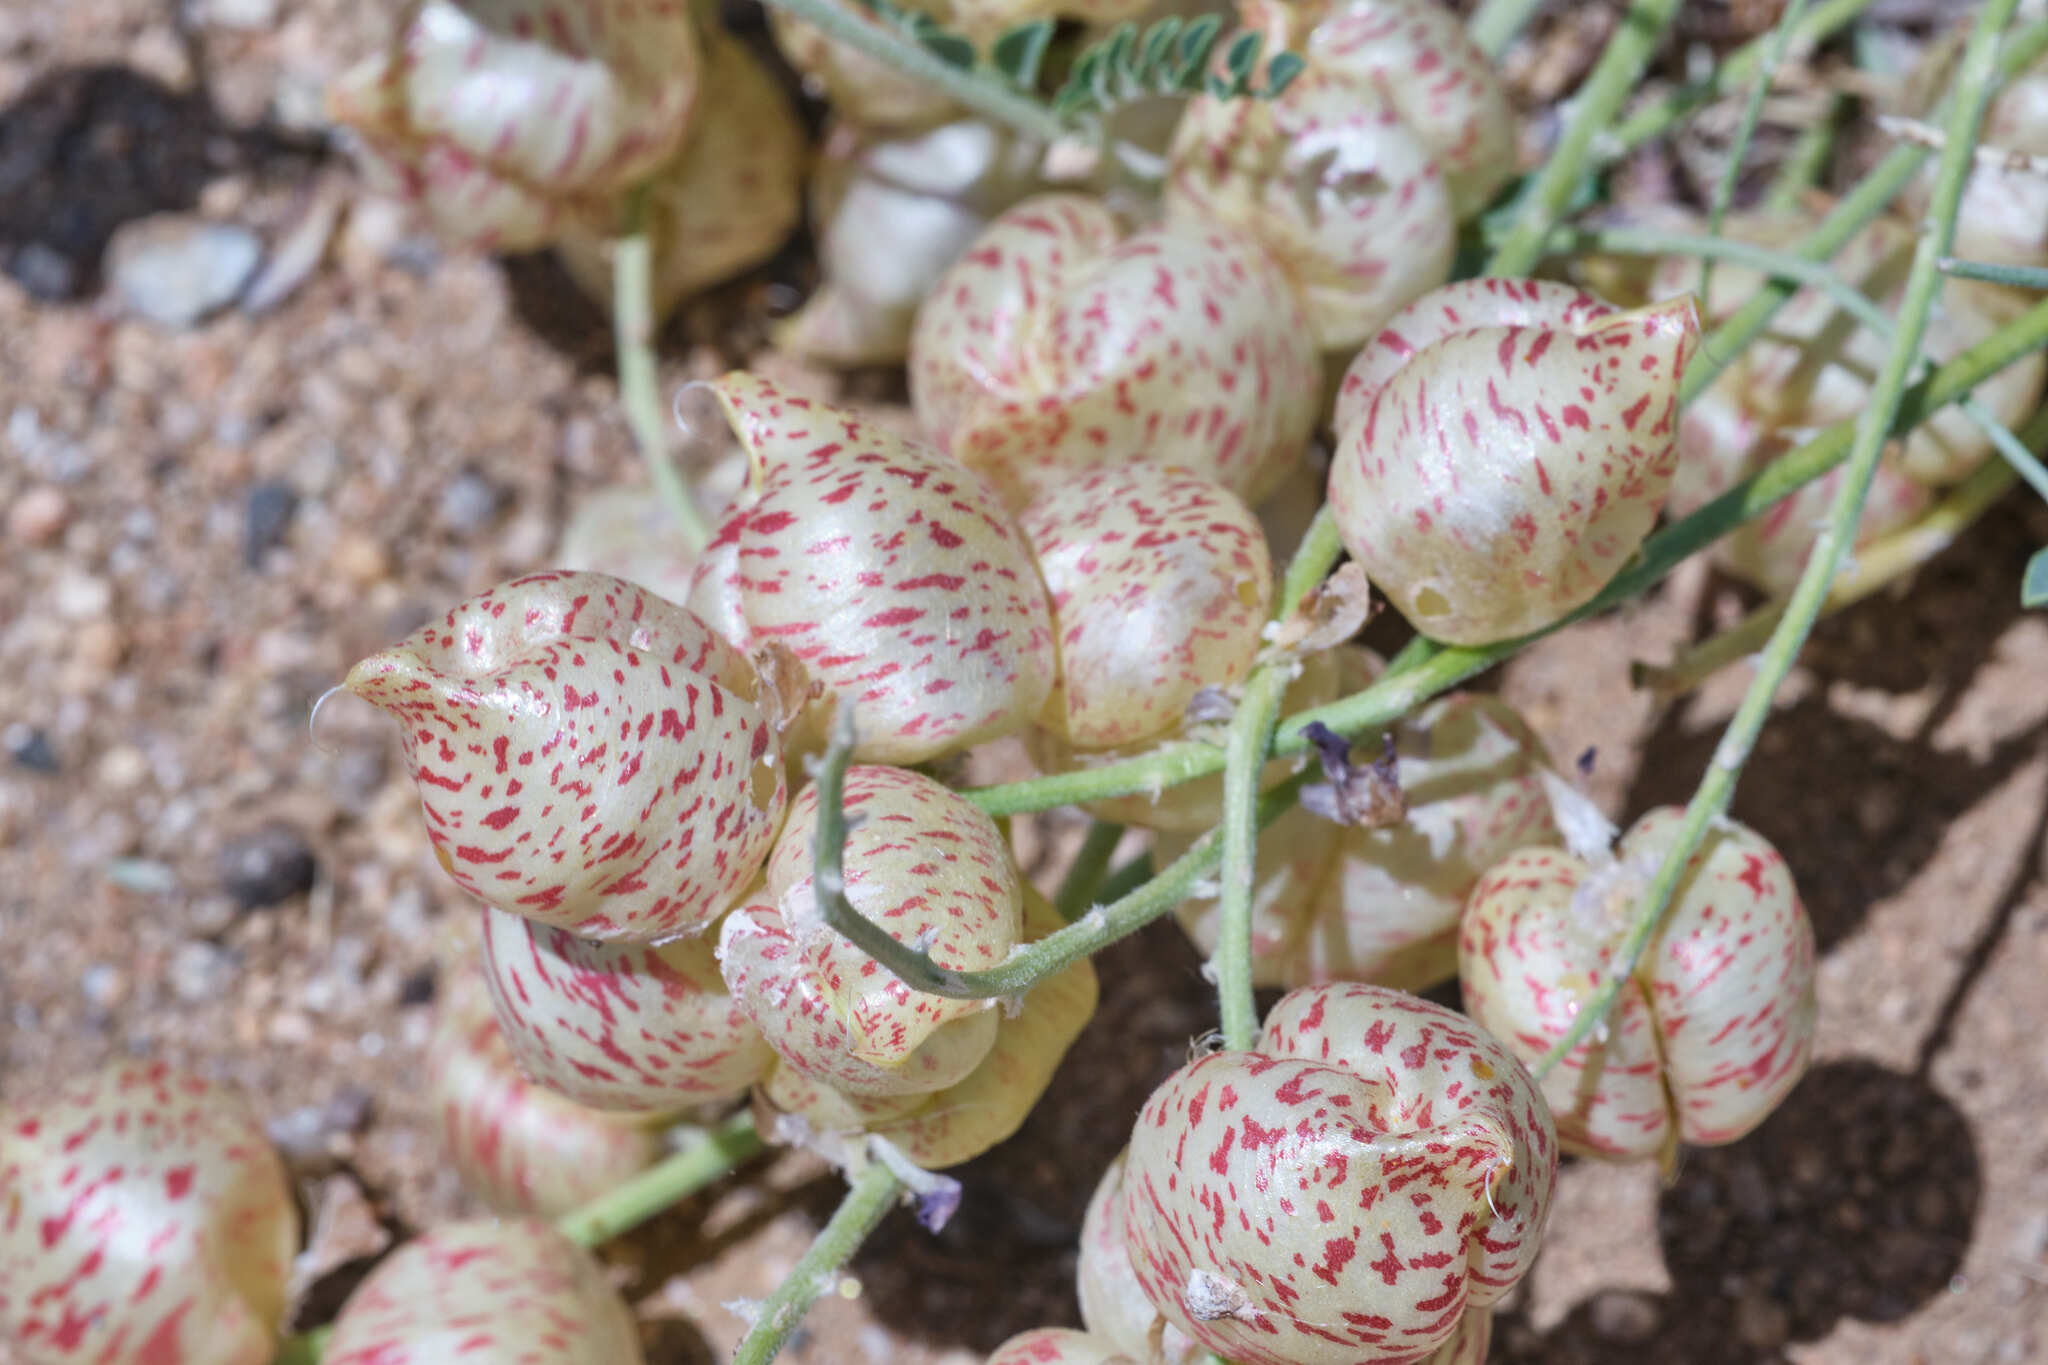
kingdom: Plantae
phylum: Tracheophyta
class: Magnoliopsida
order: Fabales
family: Fabaceae
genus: Astragalus
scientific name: Astragalus lentiginosus
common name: Freckled milkvetch
